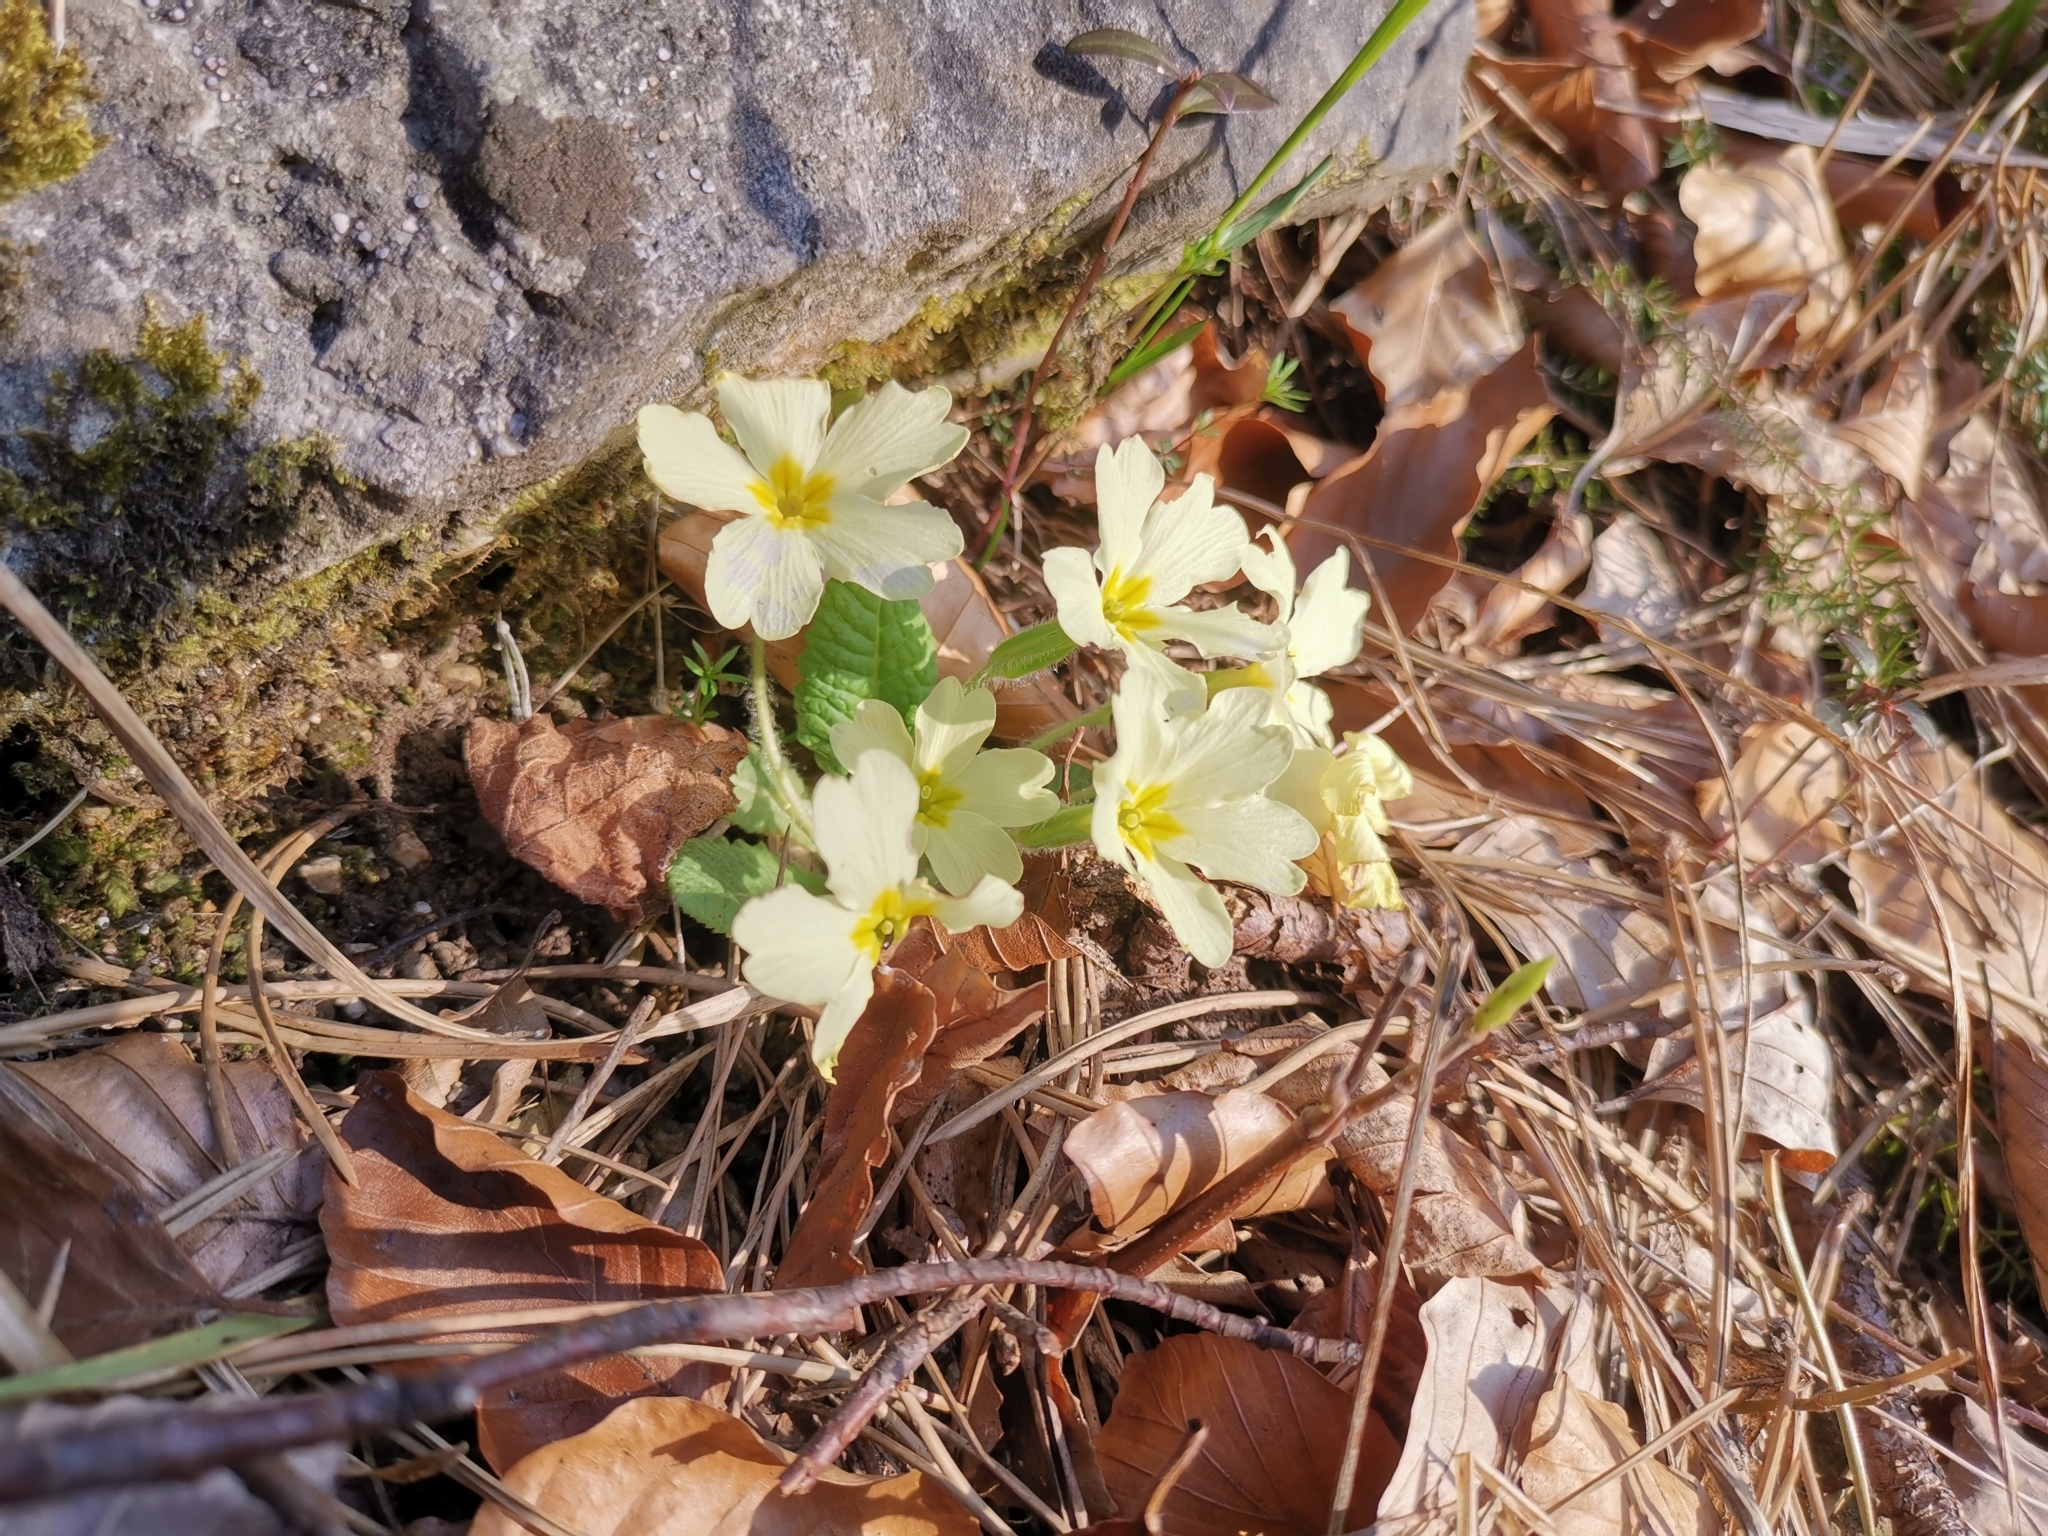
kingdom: Plantae
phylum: Tracheophyta
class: Magnoliopsida
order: Ericales
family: Primulaceae
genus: Primula
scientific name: Primula vulgaris
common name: Primrose
